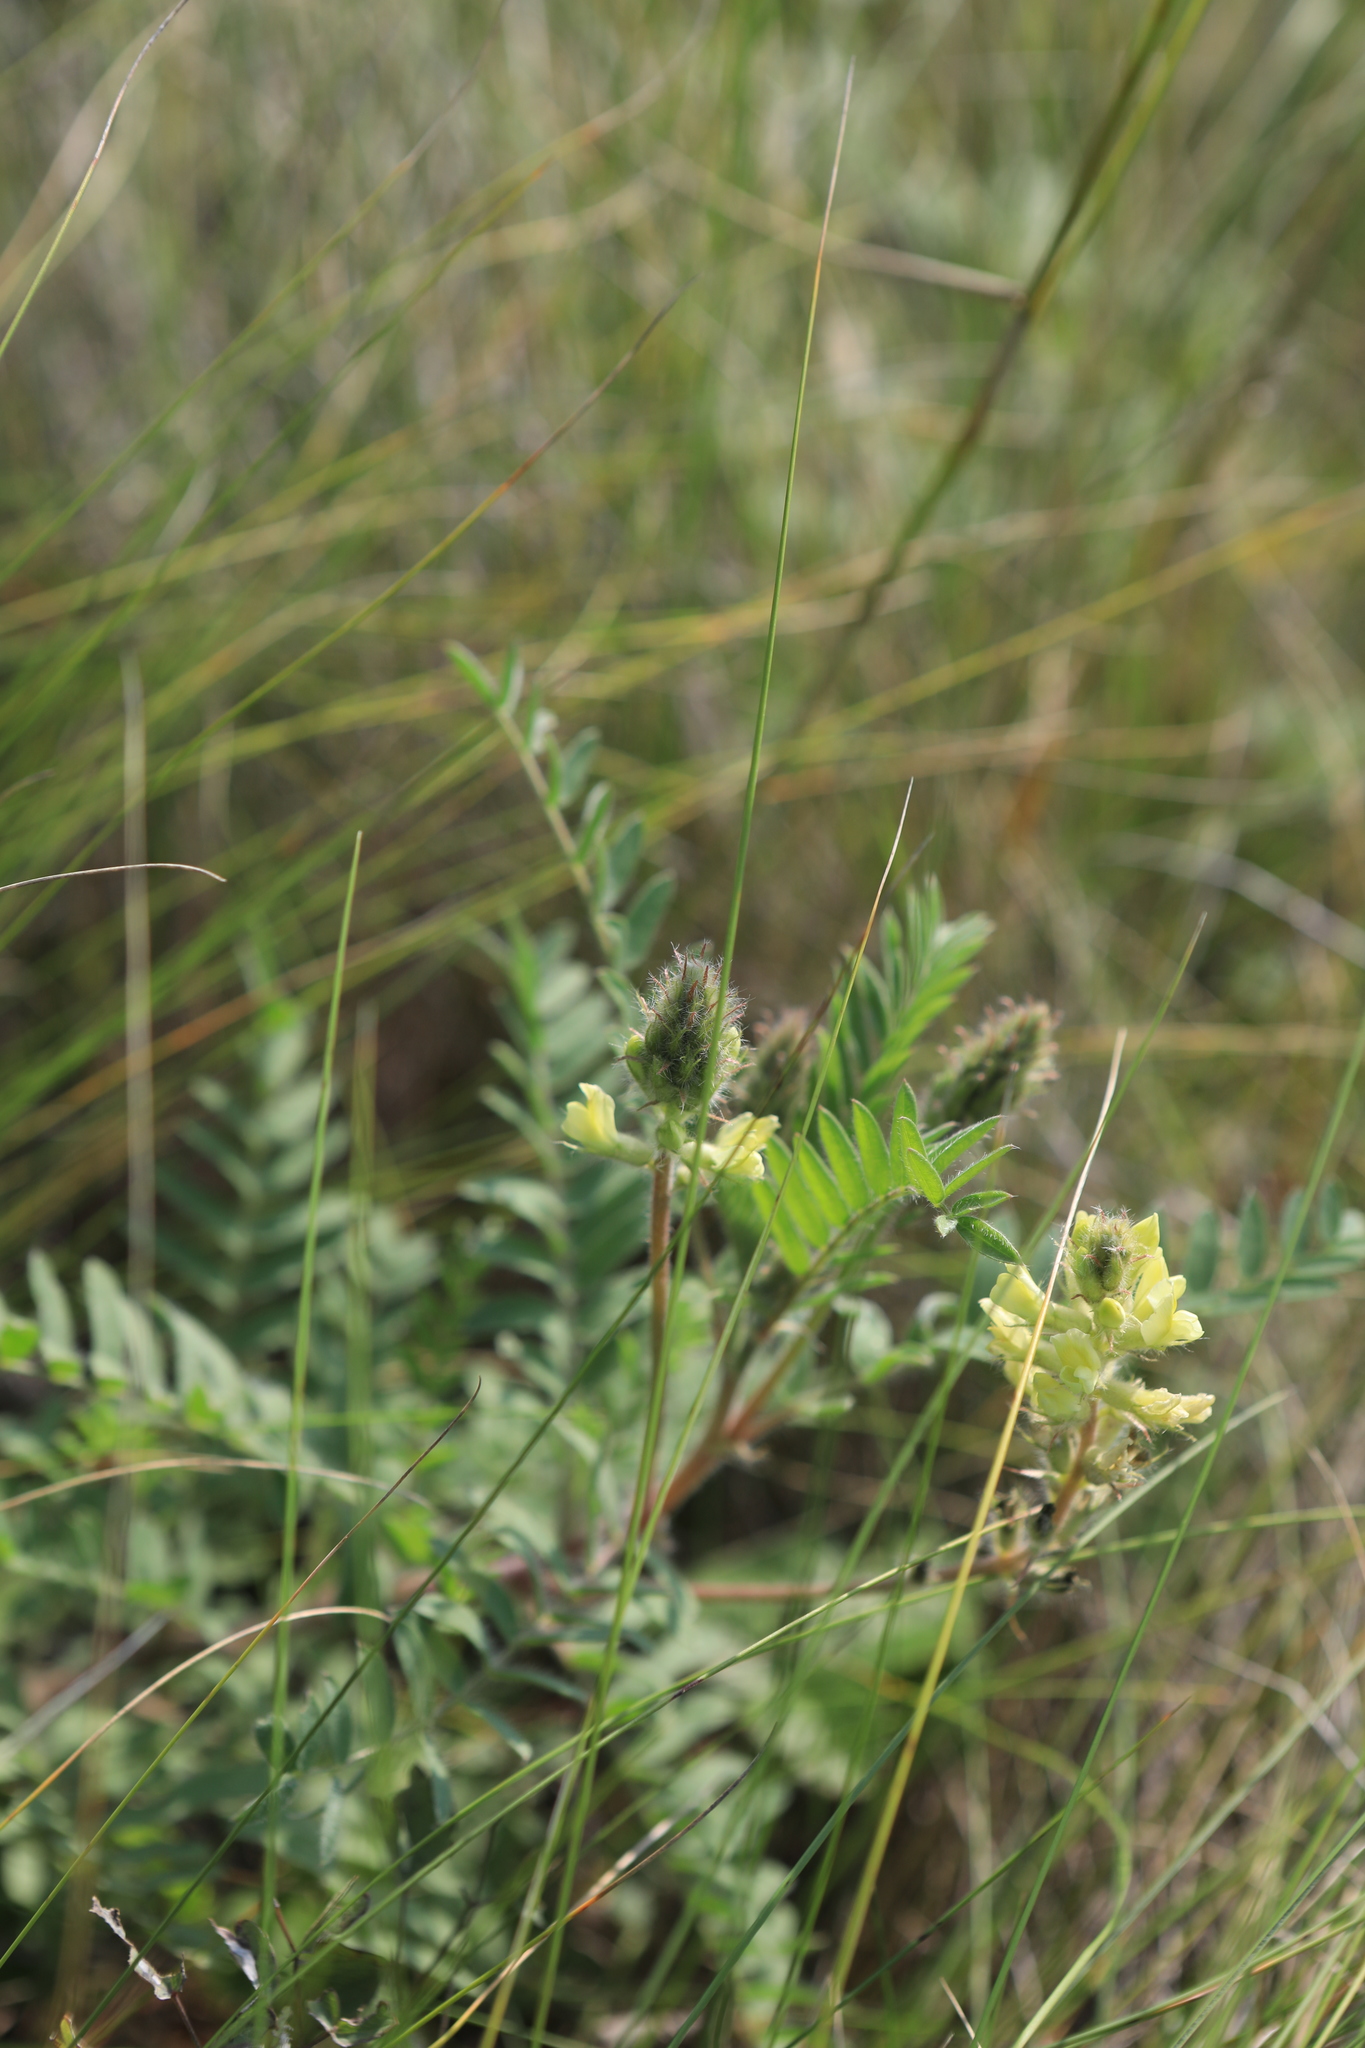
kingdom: Plantae
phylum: Tracheophyta
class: Magnoliopsida
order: Fabales
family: Fabaceae
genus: Oxytropis
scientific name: Oxytropis pilosa
